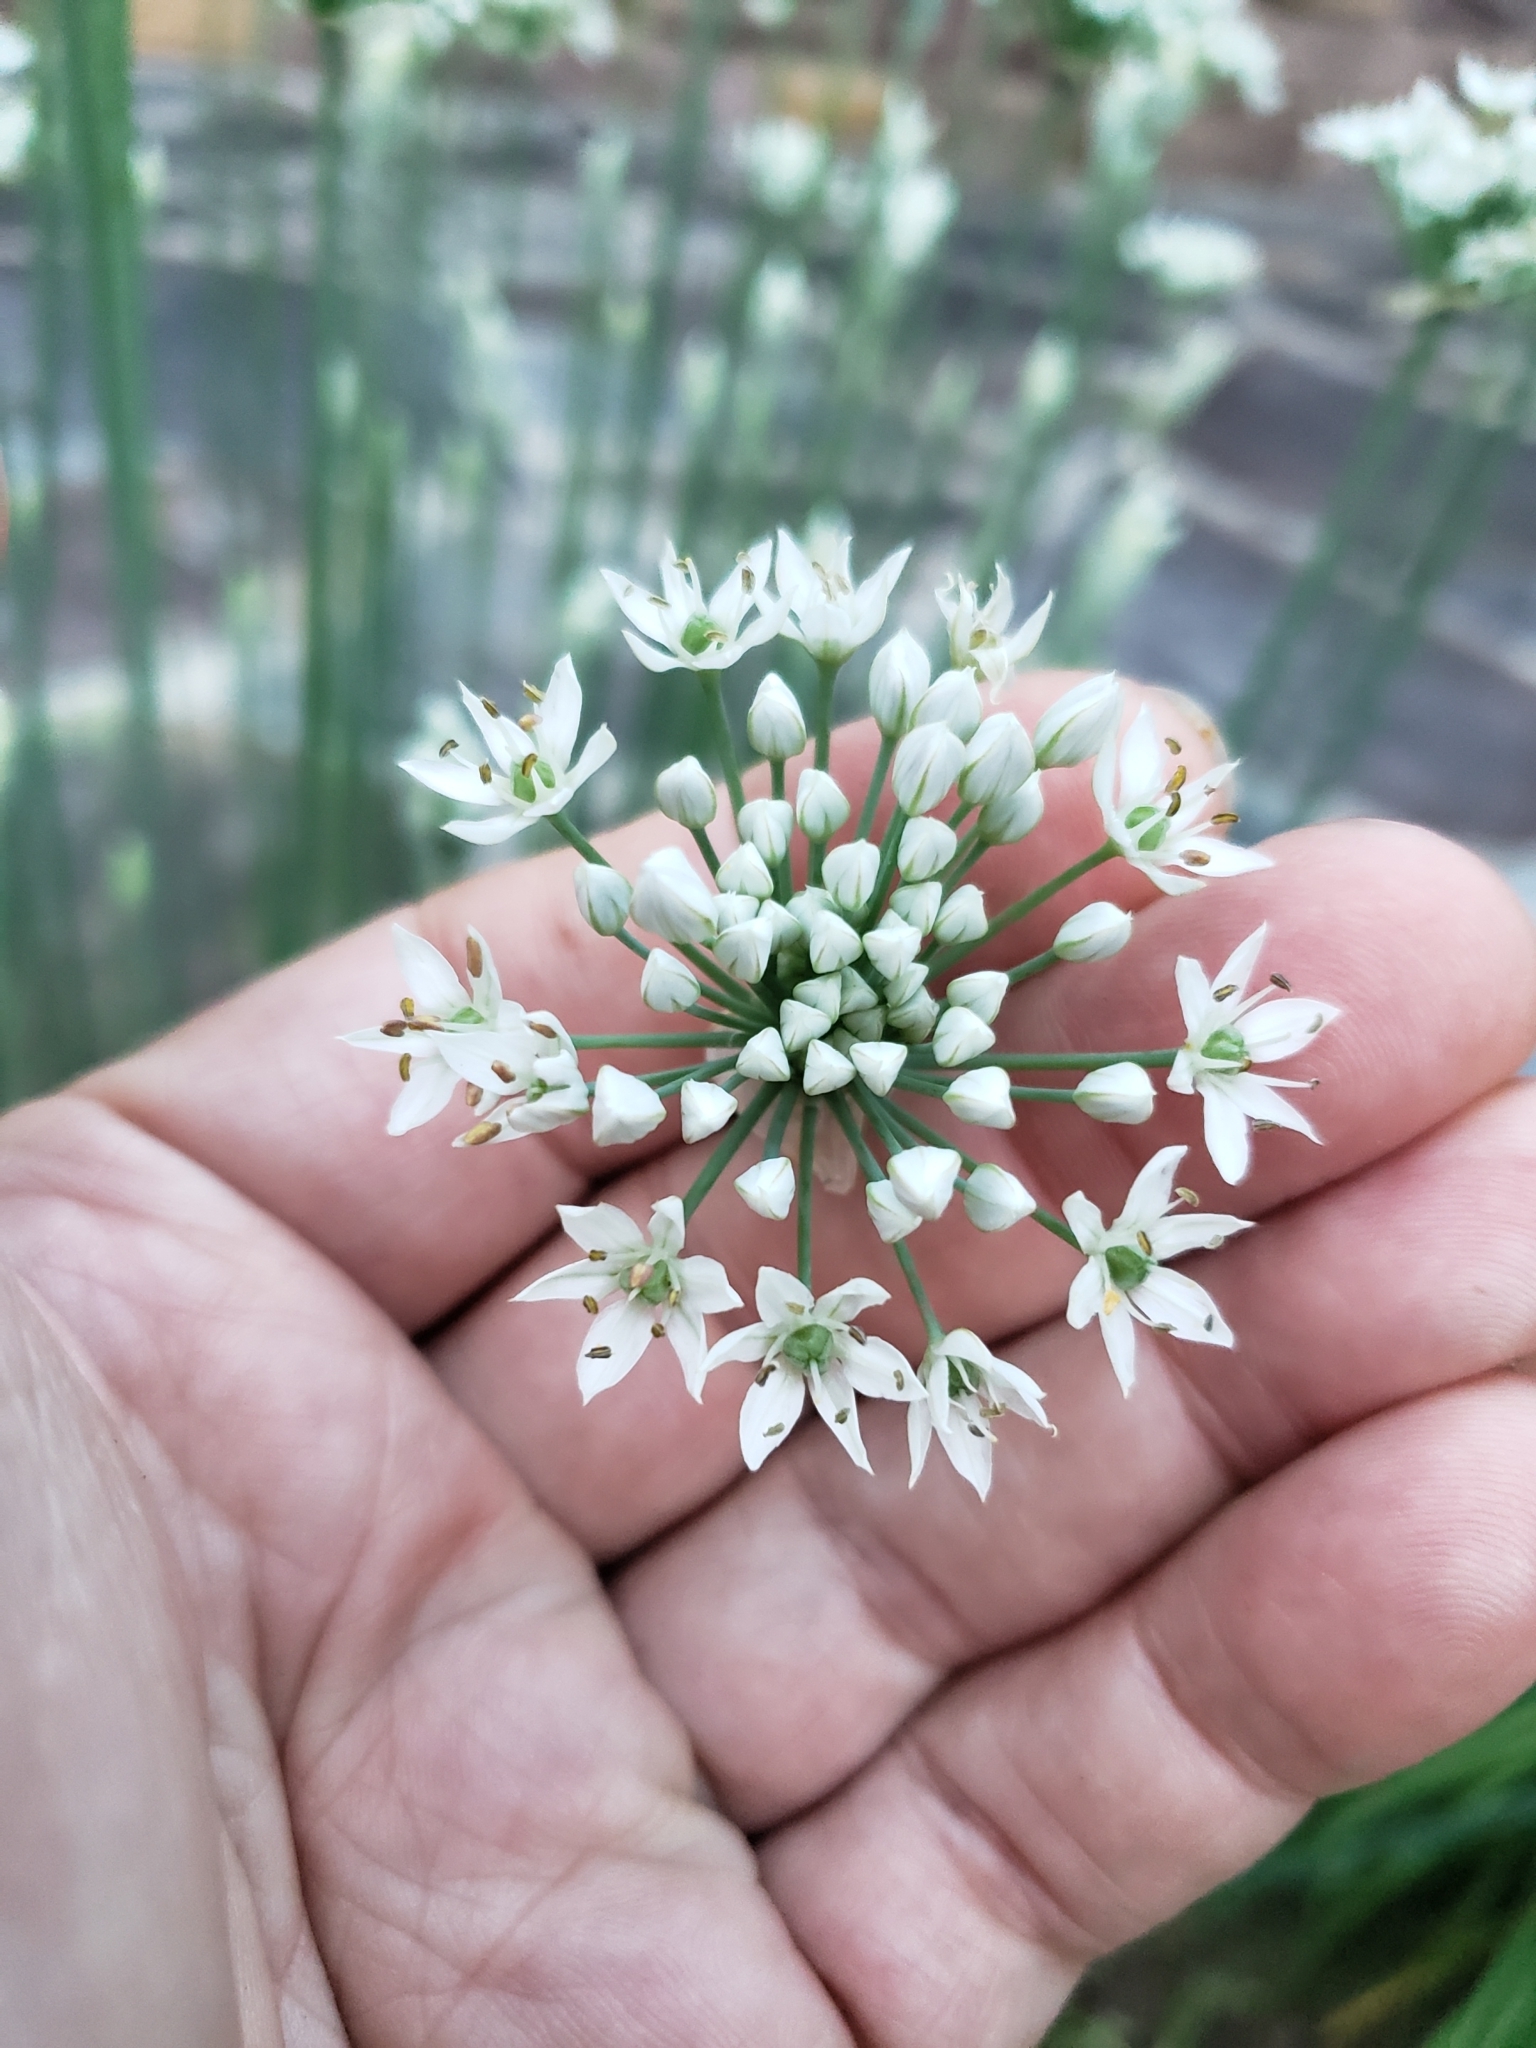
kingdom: Plantae
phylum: Tracheophyta
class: Liliopsida
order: Asparagales
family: Amaryllidaceae
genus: Allium
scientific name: Allium tuberosum
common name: Chinese chives
